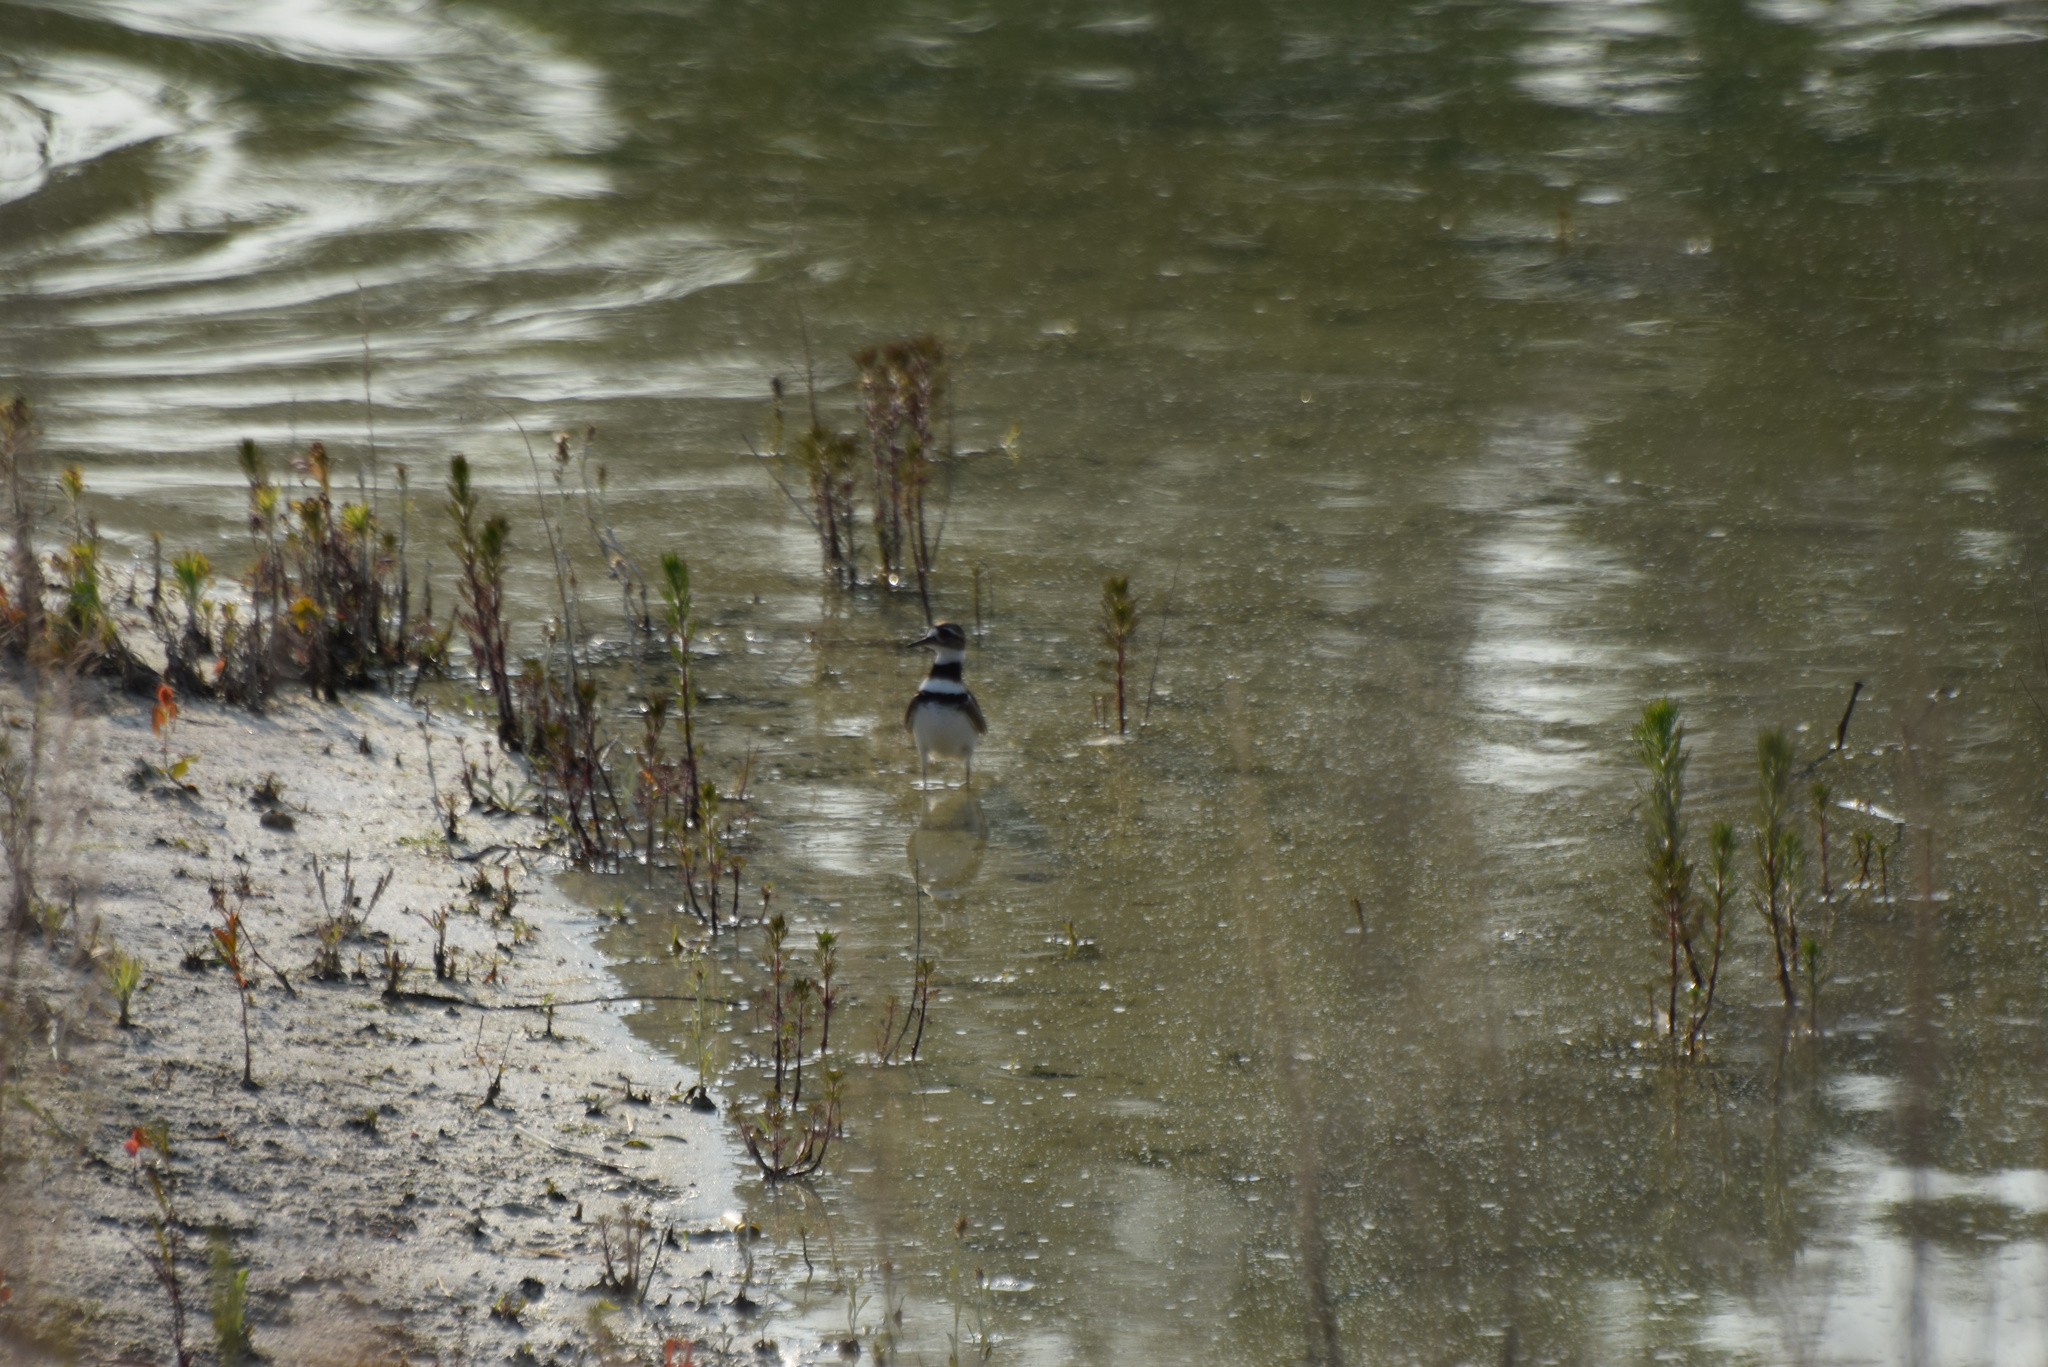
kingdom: Animalia
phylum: Chordata
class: Aves
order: Charadriiformes
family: Charadriidae
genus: Charadrius
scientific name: Charadrius vociferus
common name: Killdeer
